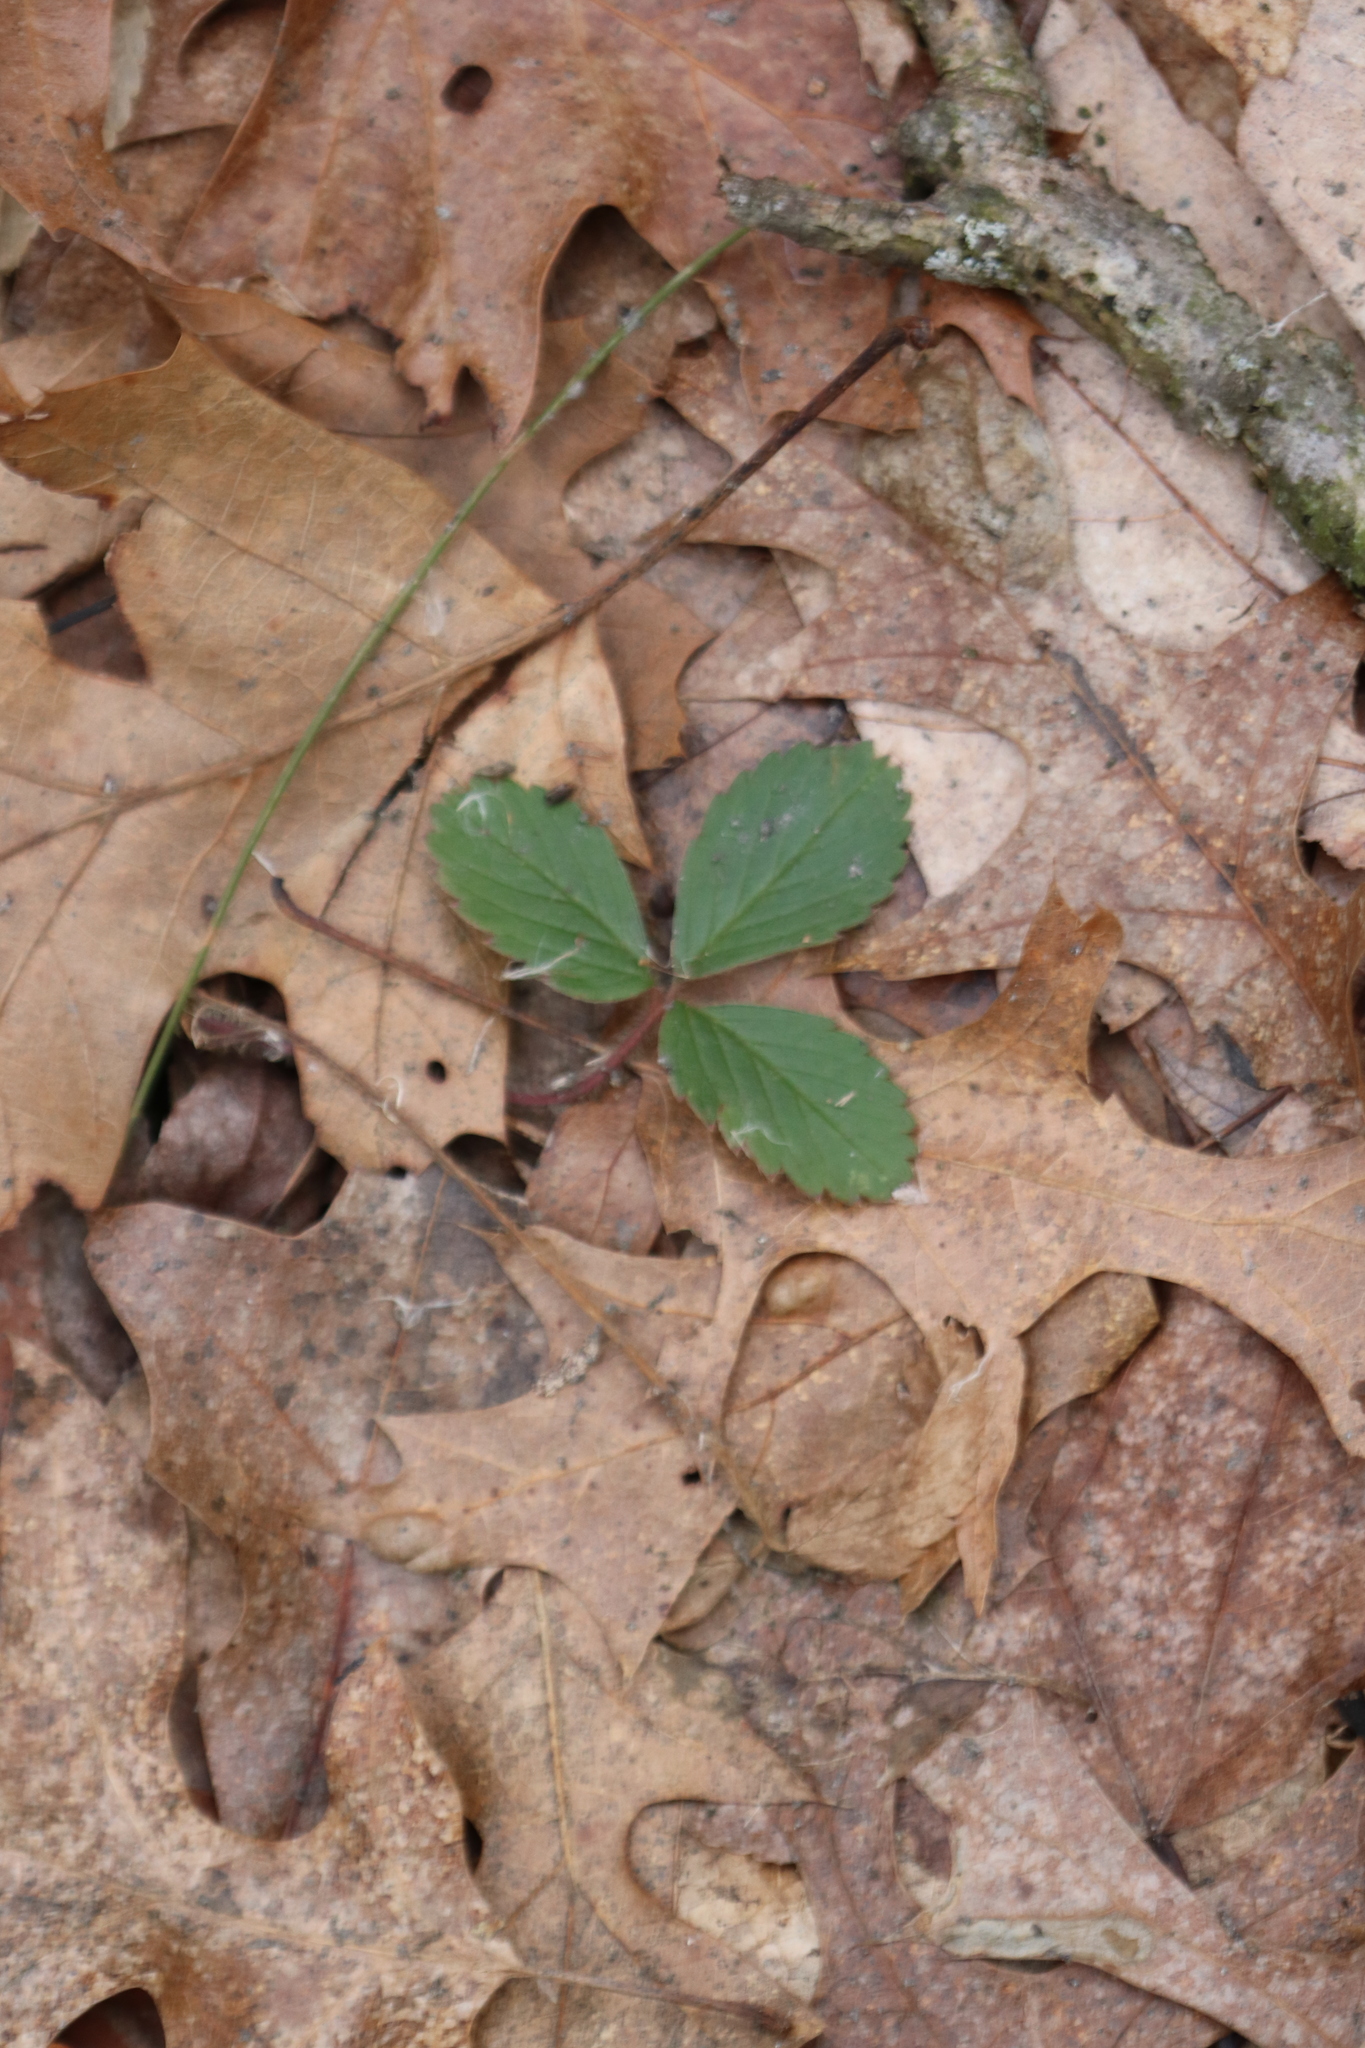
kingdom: Plantae
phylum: Tracheophyta
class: Magnoliopsida
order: Rosales
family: Rosaceae
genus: Fragaria
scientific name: Fragaria virginiana
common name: Thickleaved wild strawberry
